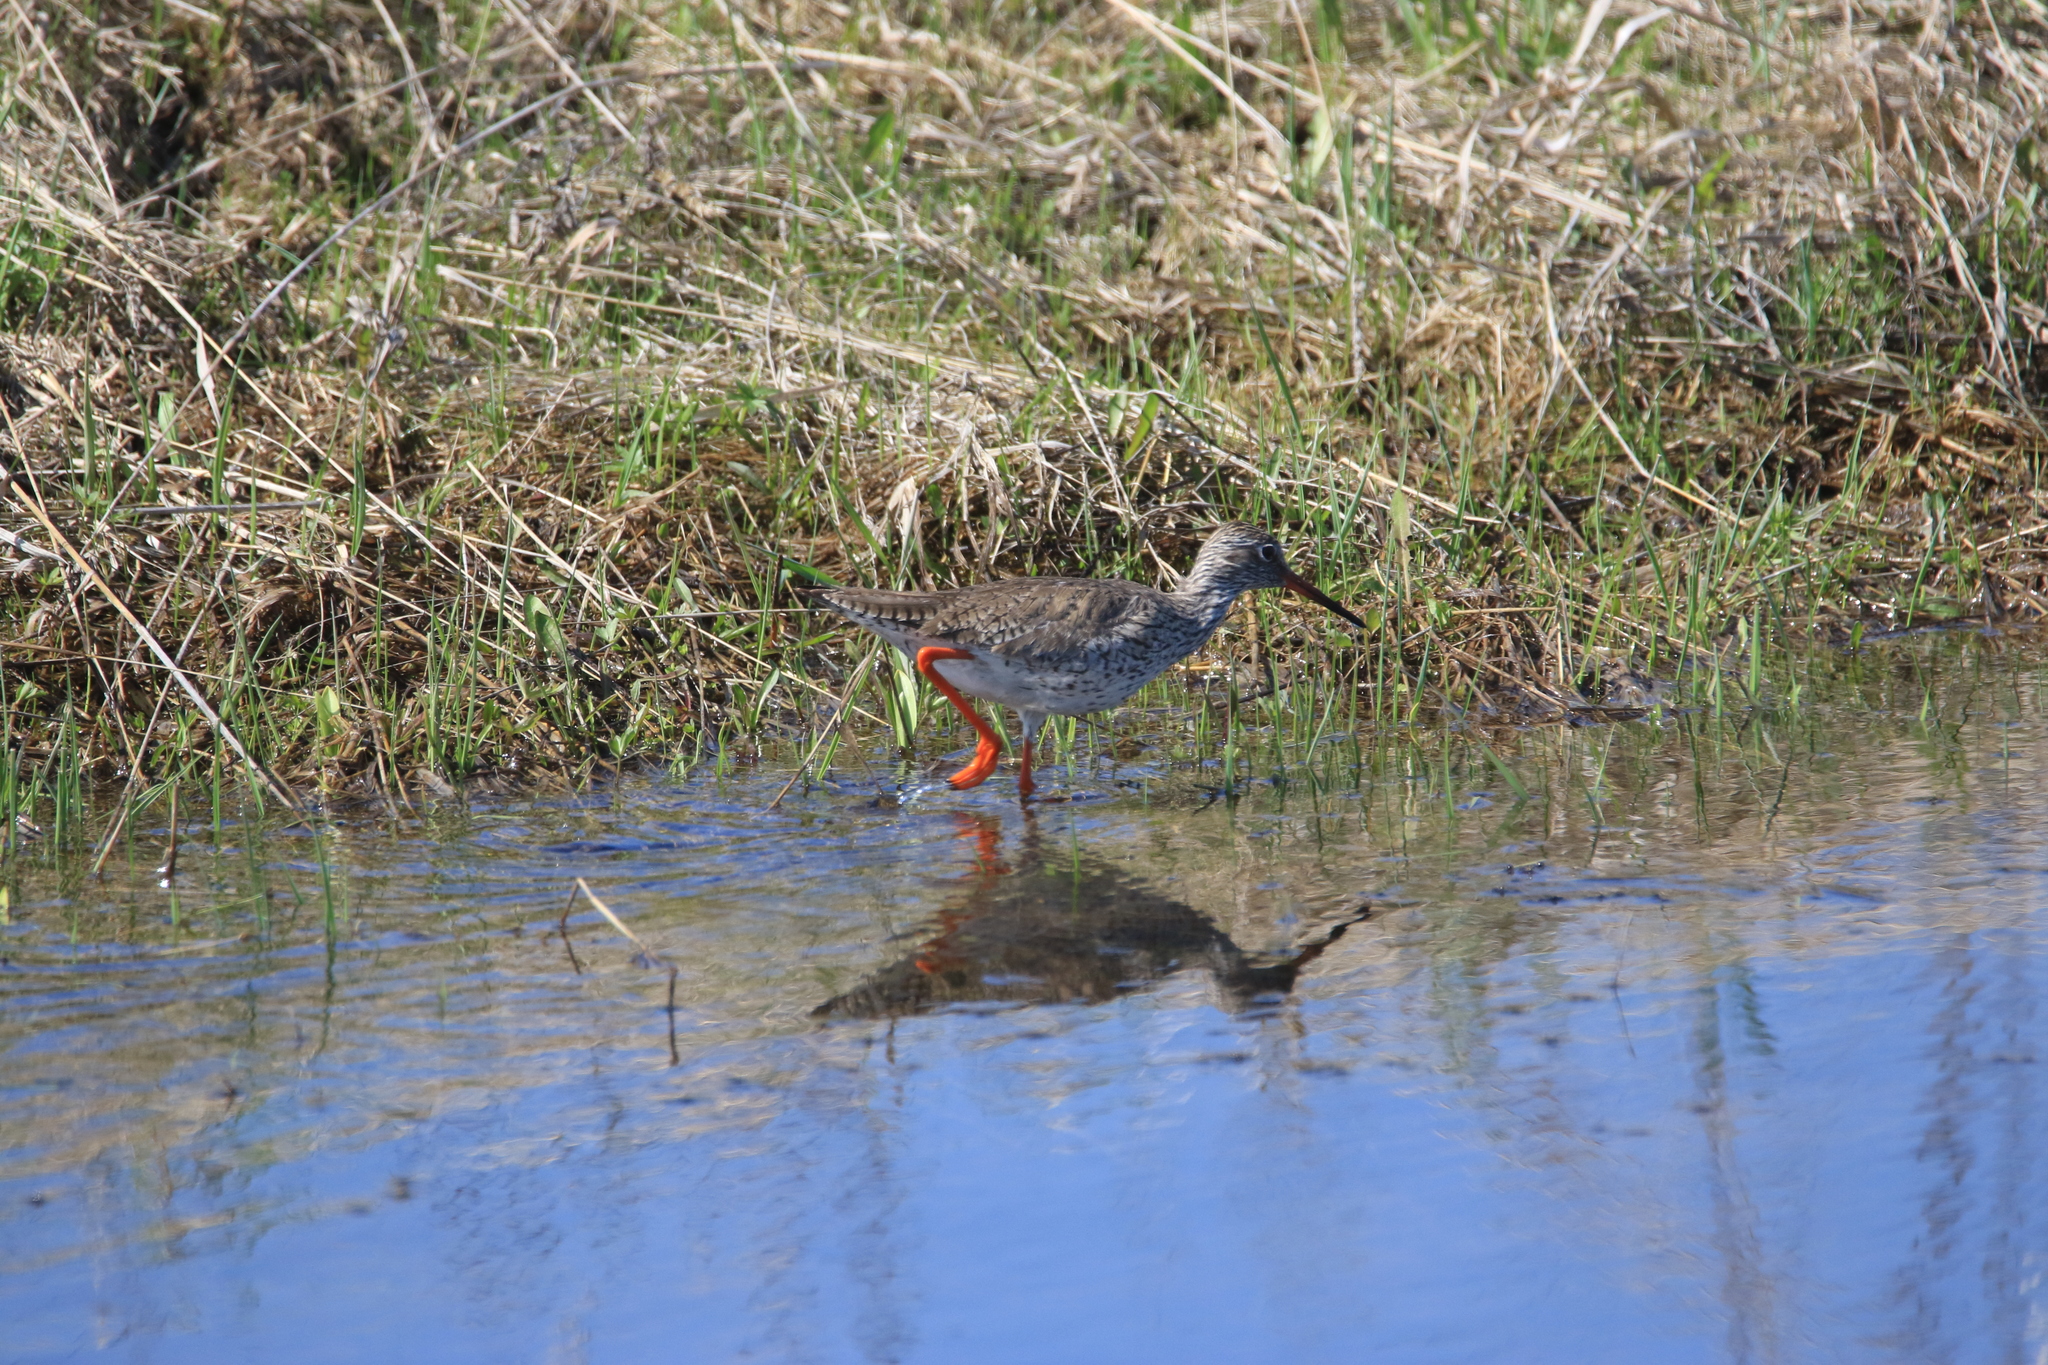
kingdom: Animalia
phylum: Chordata
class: Aves
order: Charadriiformes
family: Scolopacidae
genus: Tringa
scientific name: Tringa totanus
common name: Common redshank
